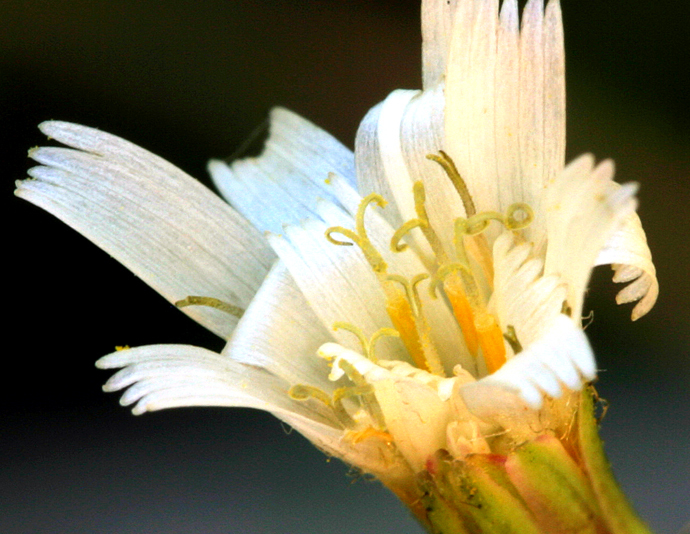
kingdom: Plantae
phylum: Tracheophyta
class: Magnoliopsida
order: Asterales
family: Asteraceae
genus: Hieracium
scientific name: Hieracium albiflorum
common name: White hawkweed
